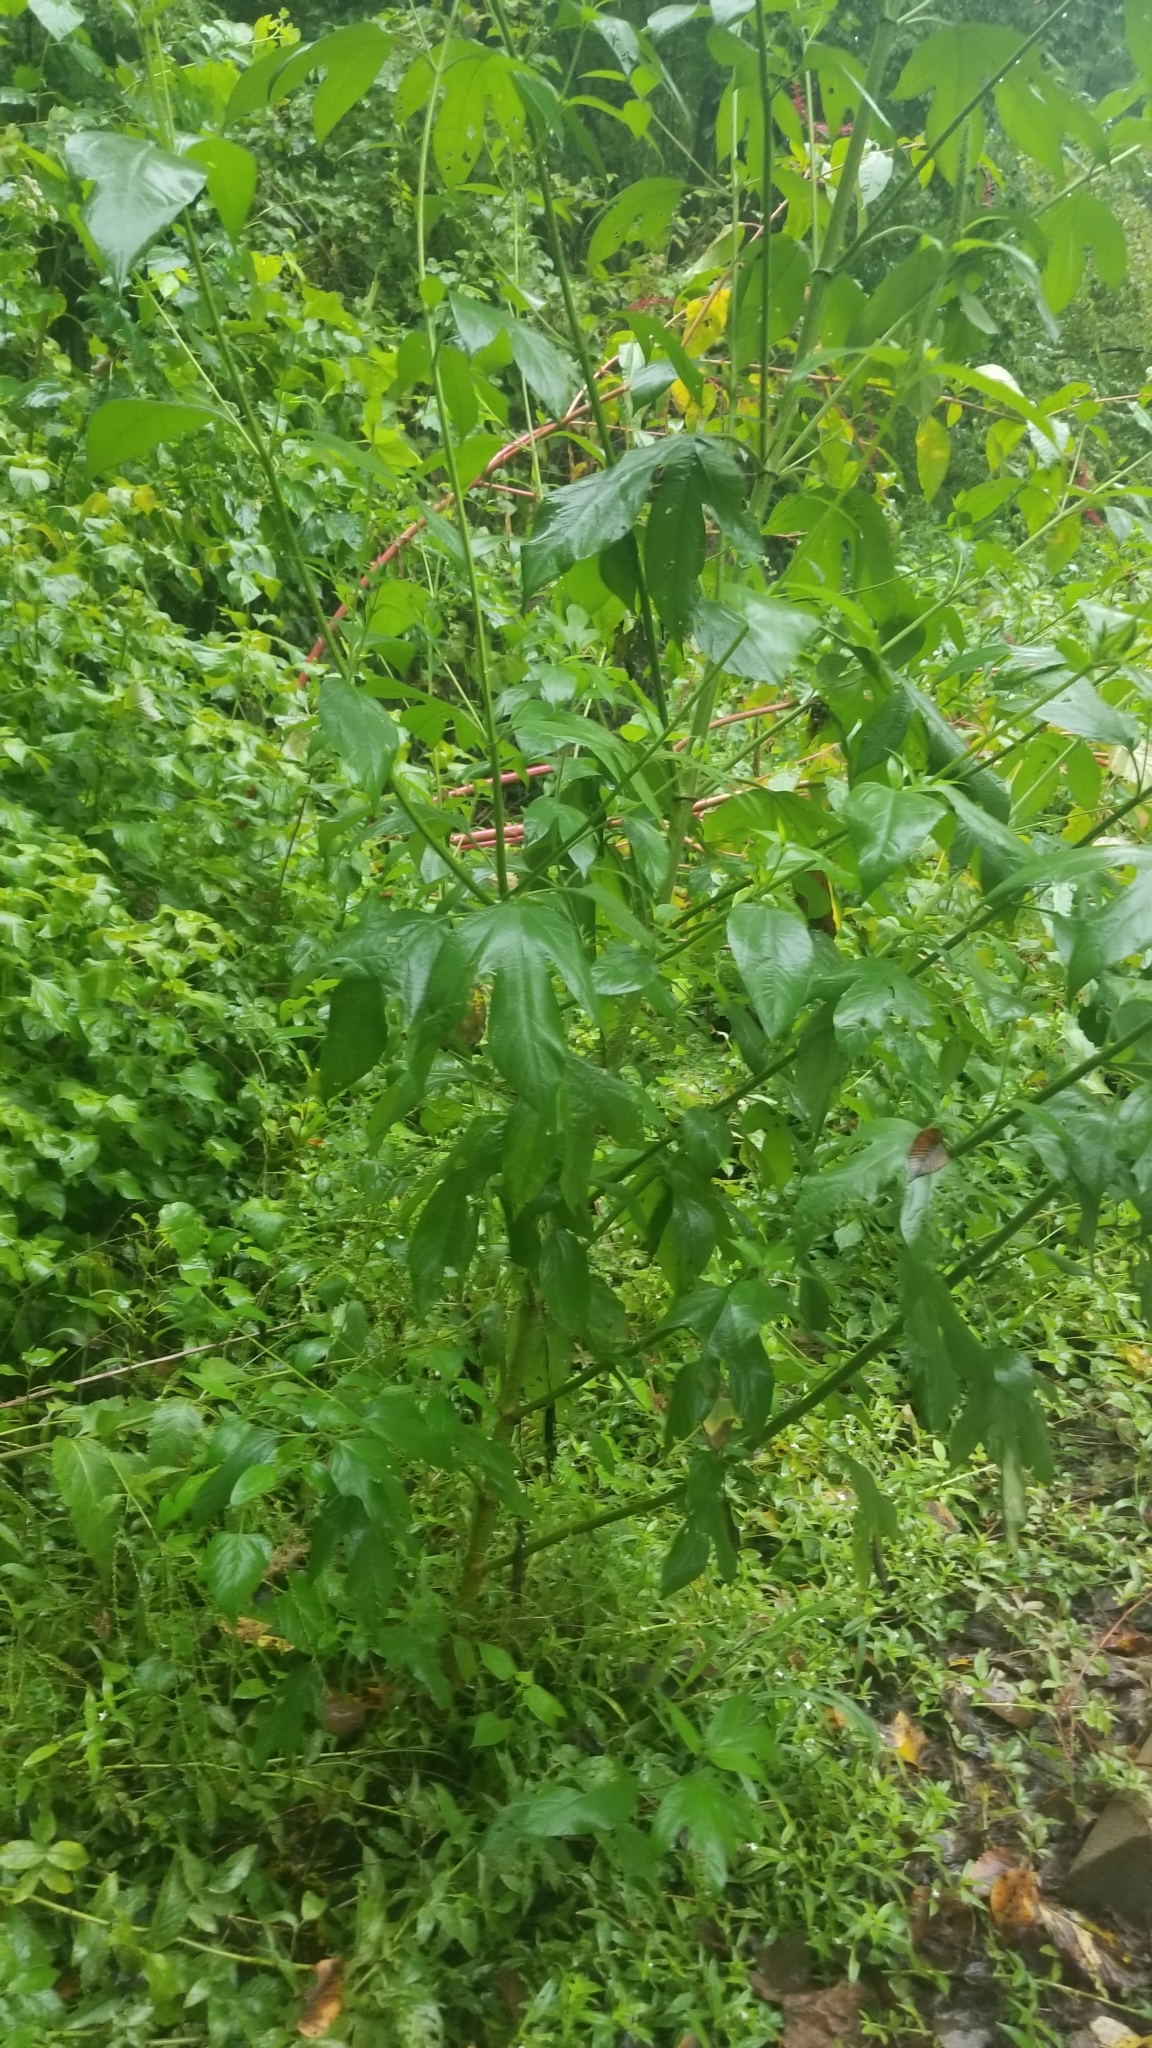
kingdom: Plantae
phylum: Tracheophyta
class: Magnoliopsida
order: Asterales
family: Asteraceae
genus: Ambrosia
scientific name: Ambrosia trifida
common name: Giant ragweed
